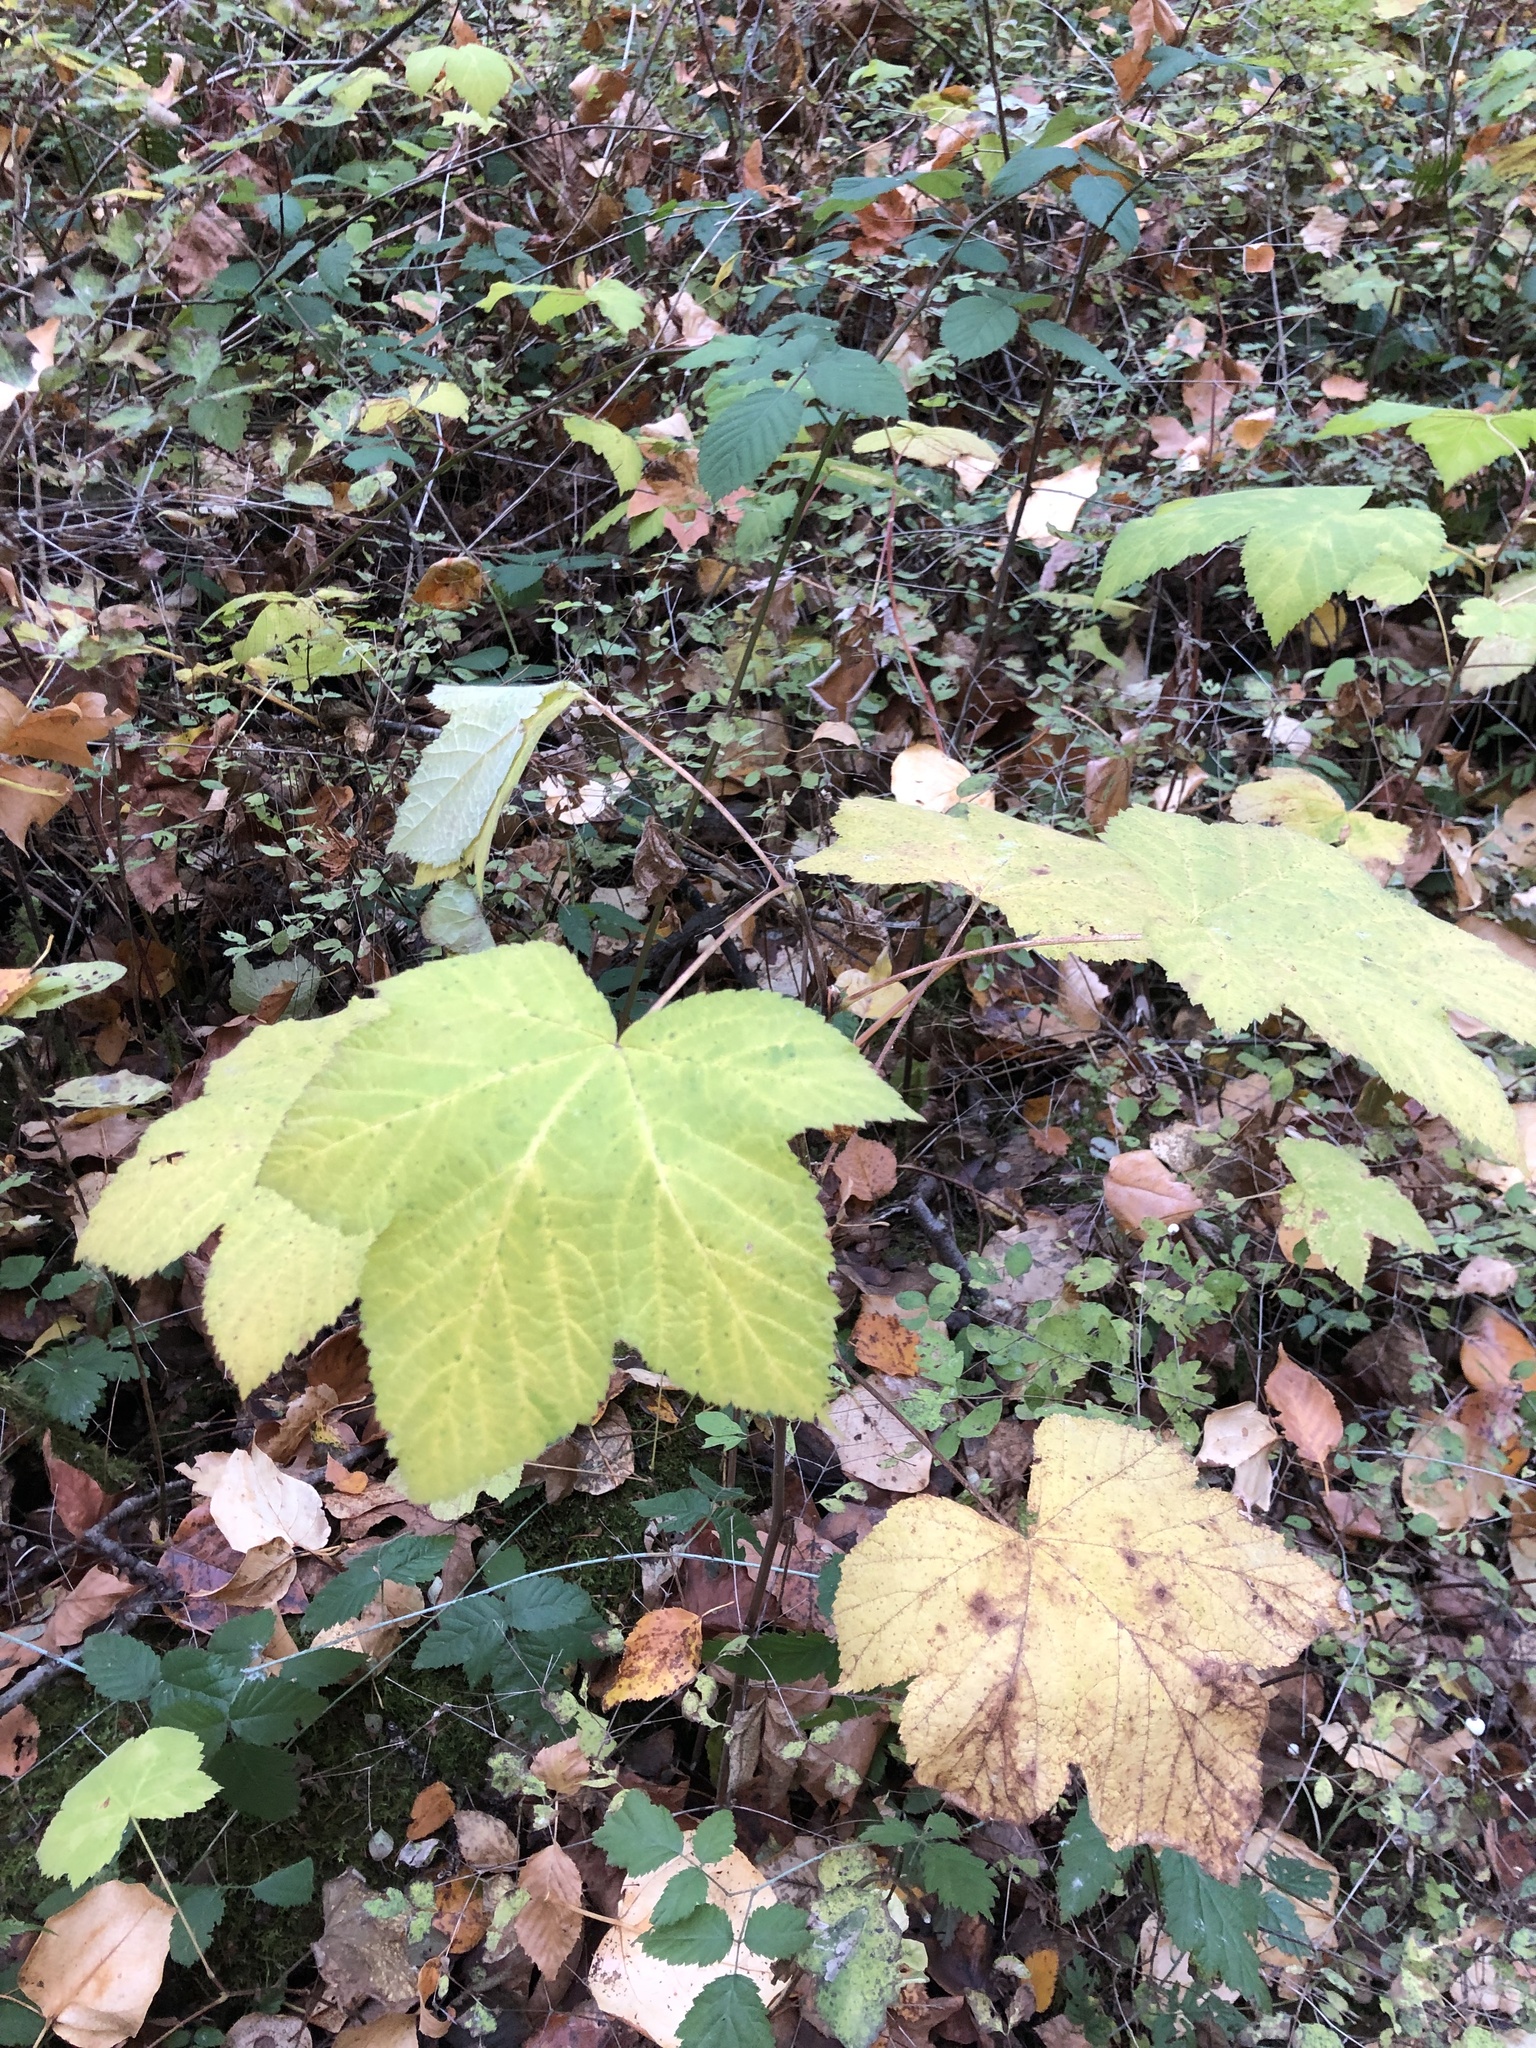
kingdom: Plantae
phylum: Tracheophyta
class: Magnoliopsida
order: Rosales
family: Rosaceae
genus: Rubus
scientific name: Rubus parviflorus
